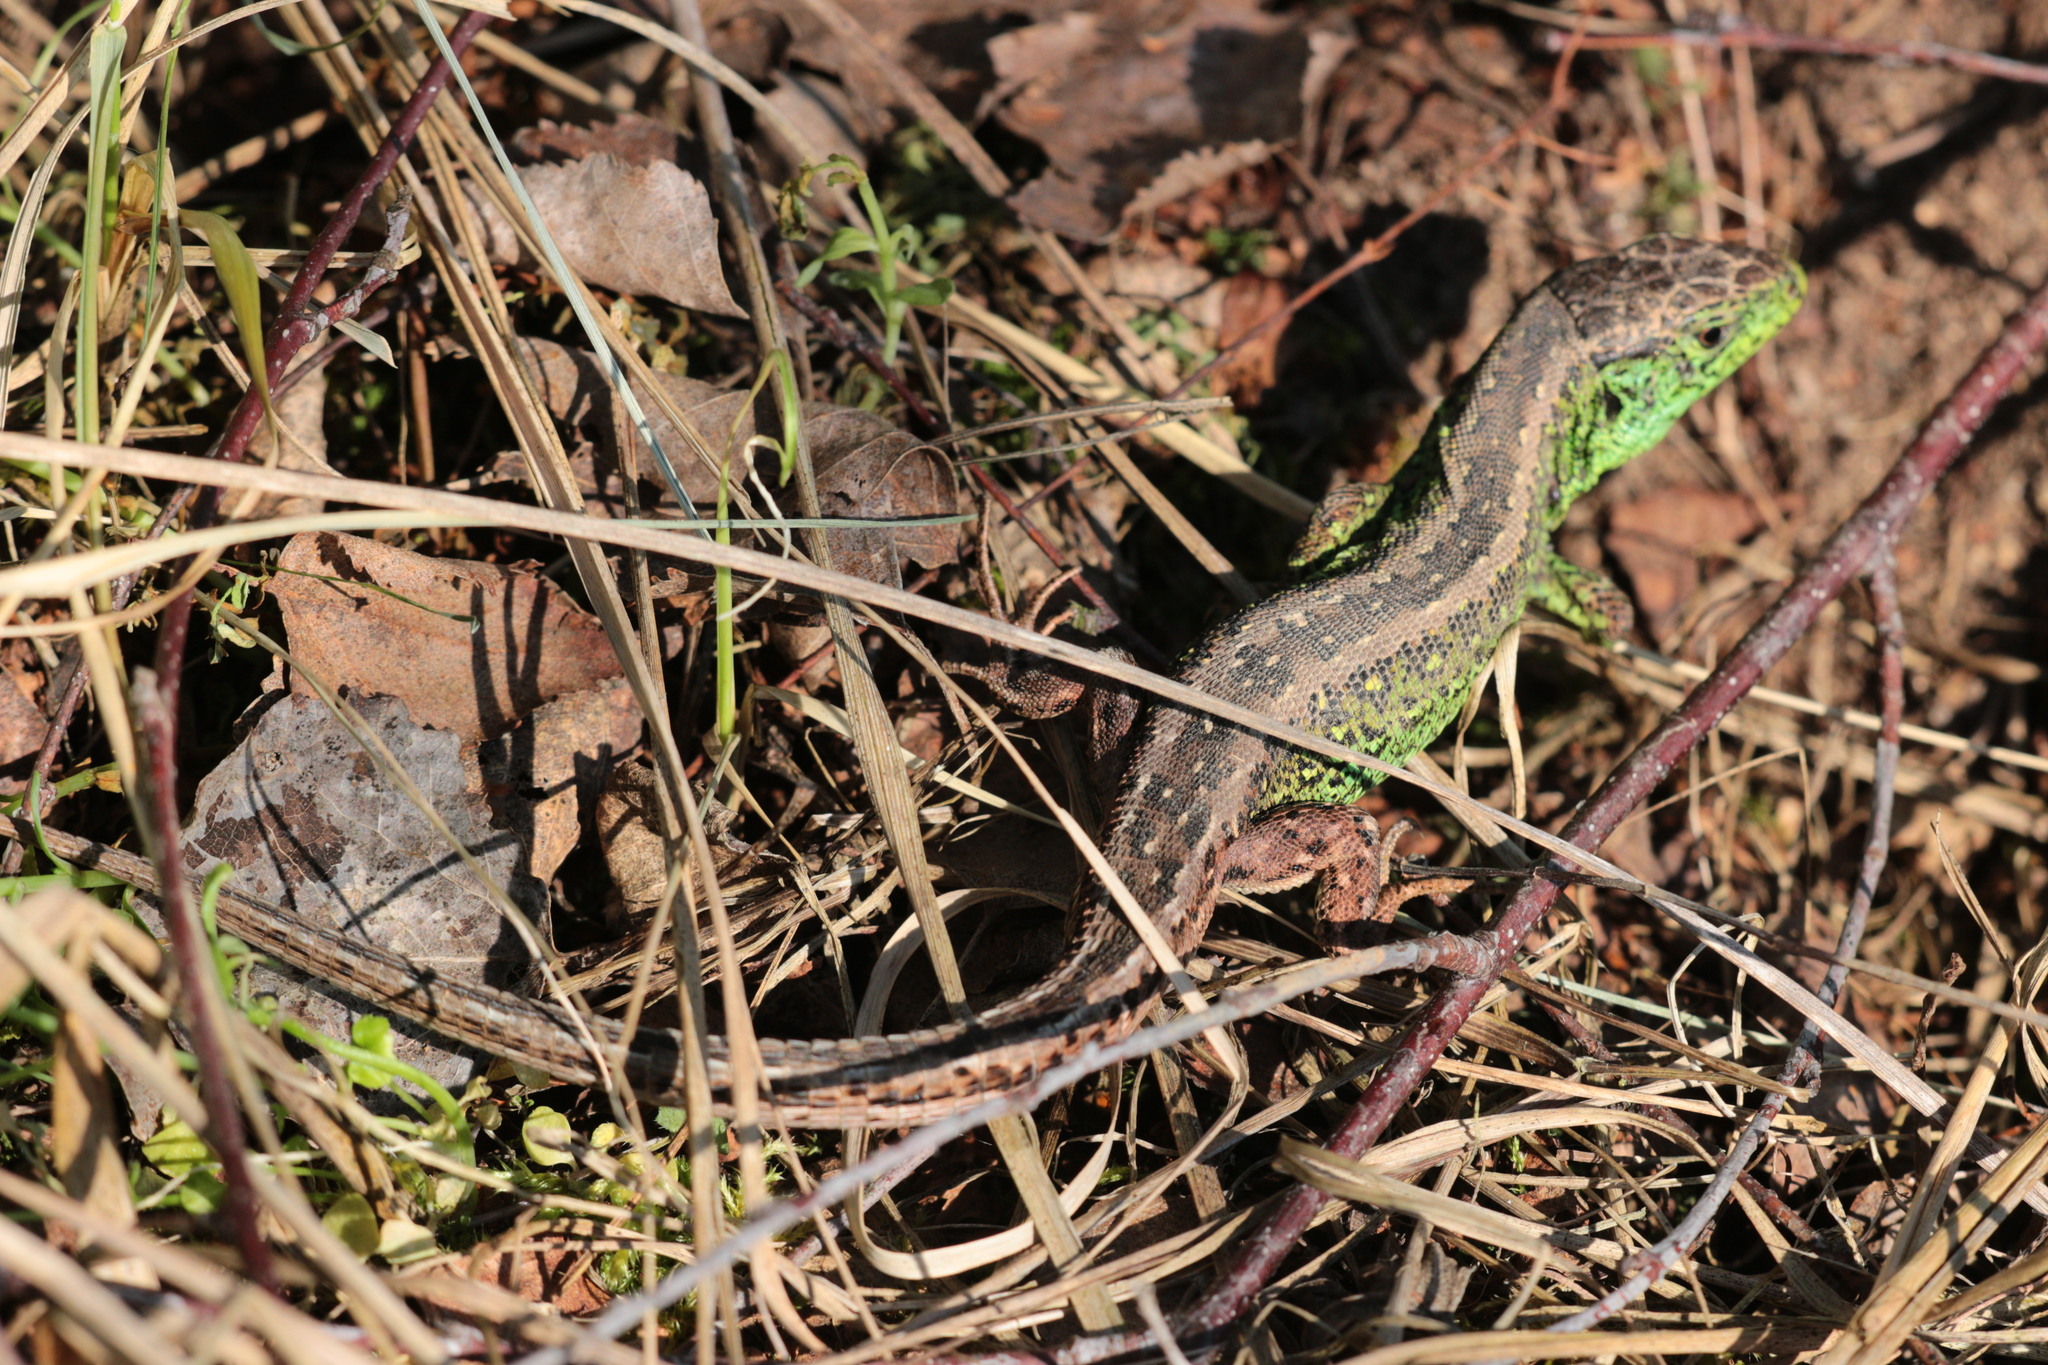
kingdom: Animalia
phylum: Chordata
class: Squamata
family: Lacertidae
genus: Lacerta
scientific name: Lacerta agilis
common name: Sand lizard
